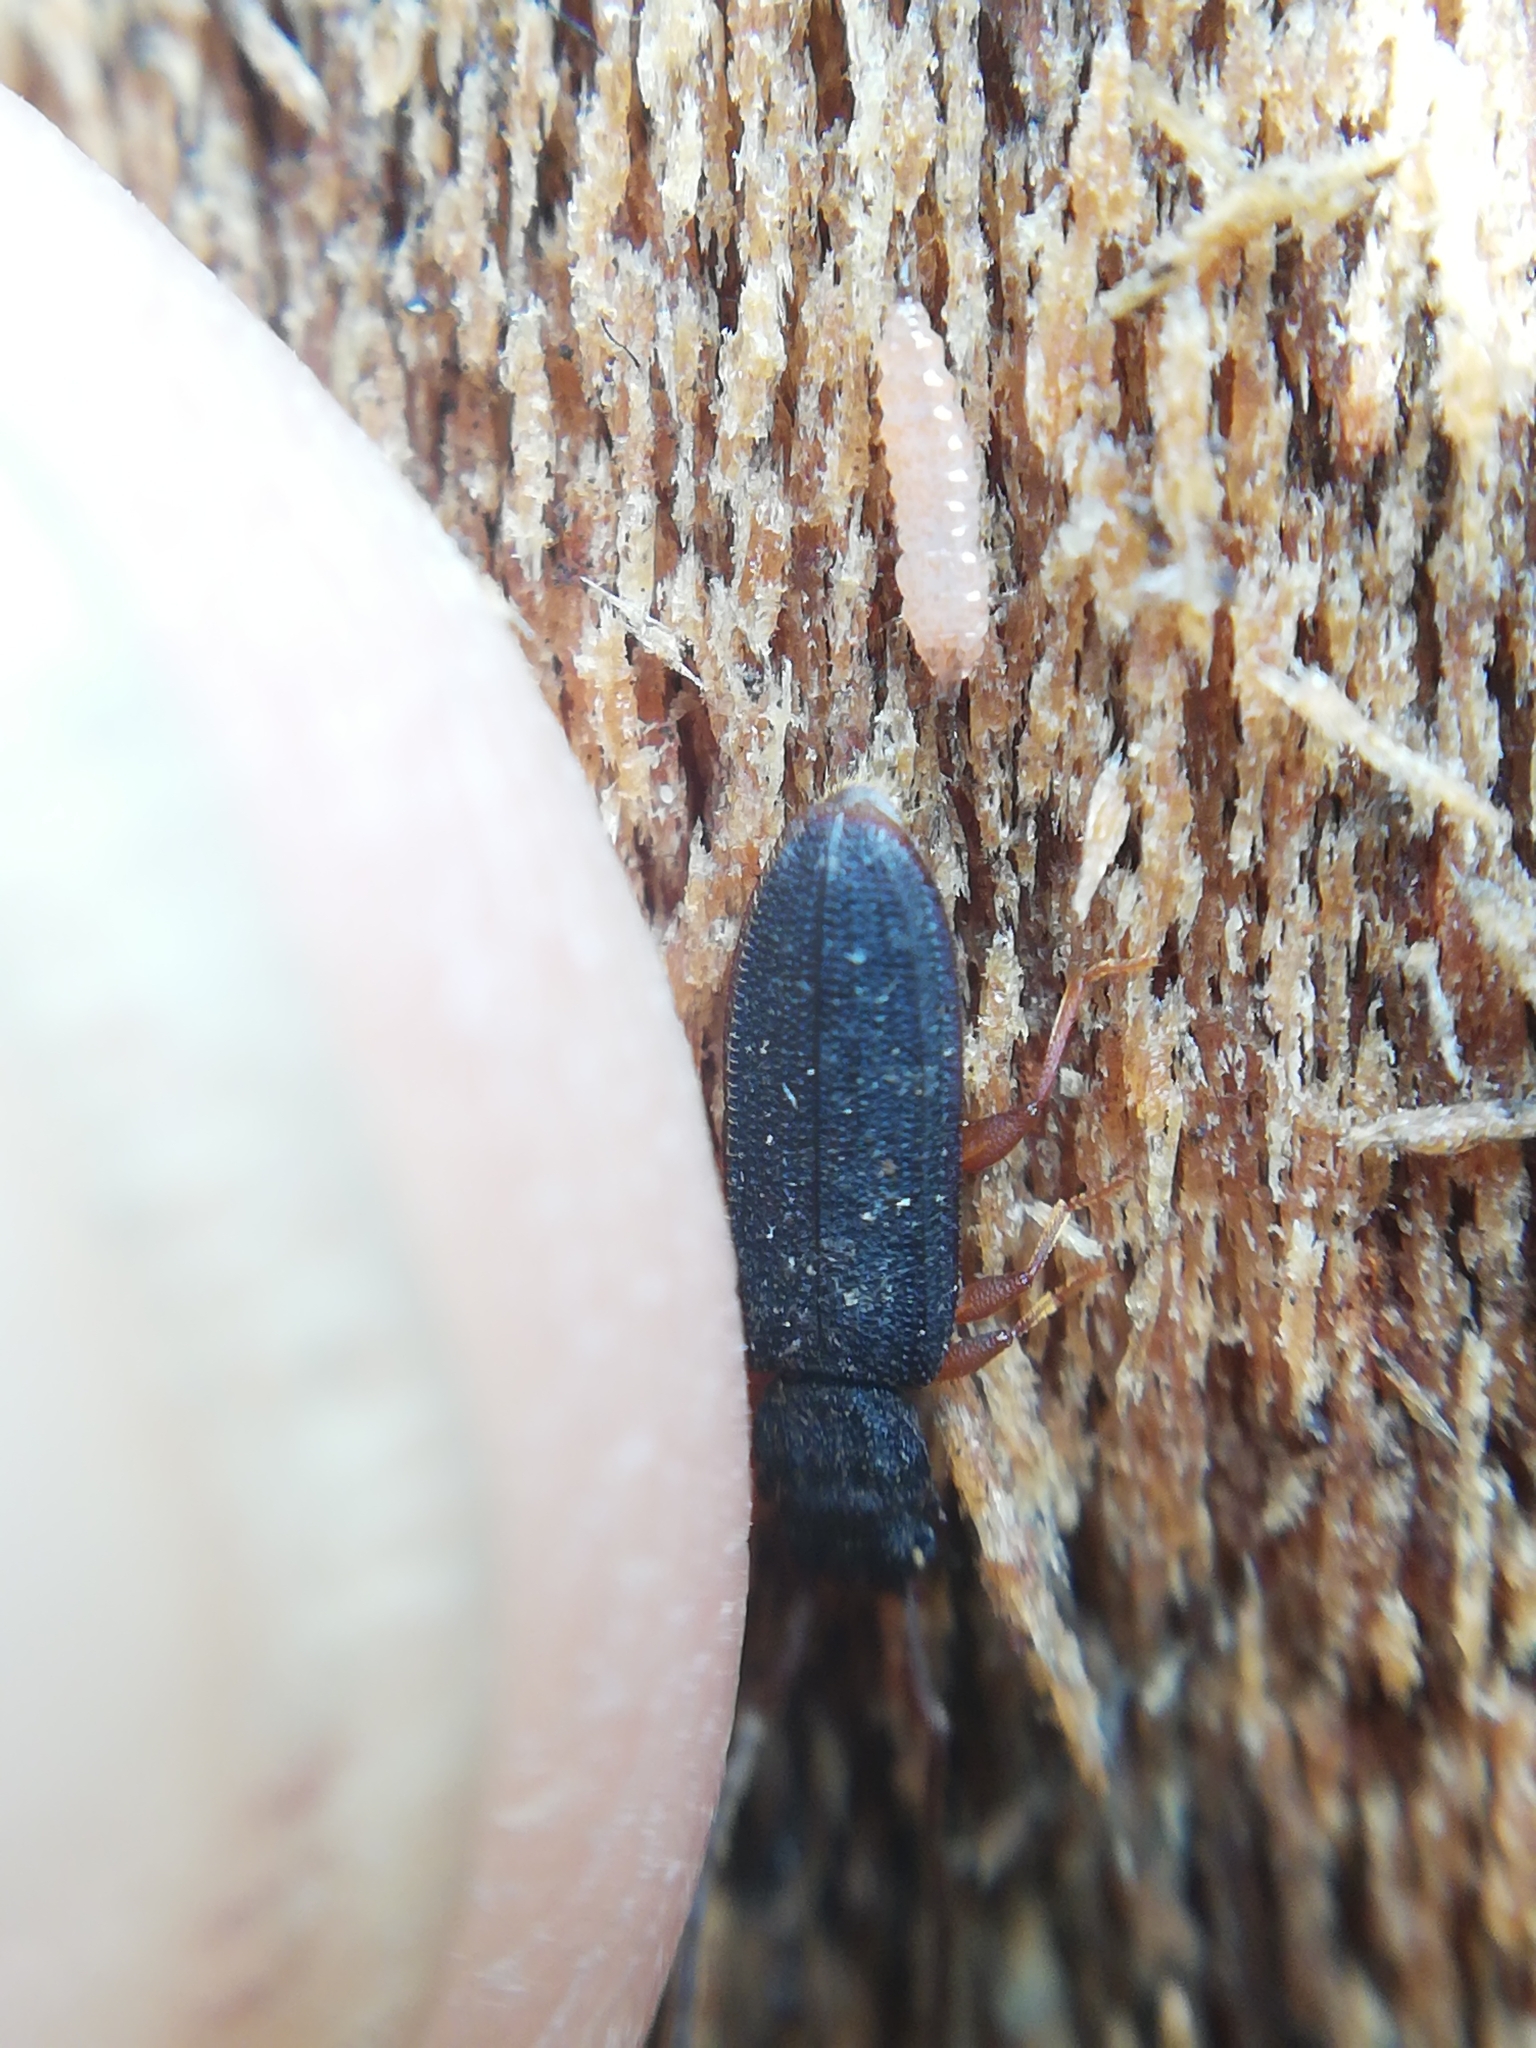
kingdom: Animalia
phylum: Arthropoda
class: Insecta
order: Coleoptera
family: Silvanidae
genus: Uleiota
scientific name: Uleiota planatus
